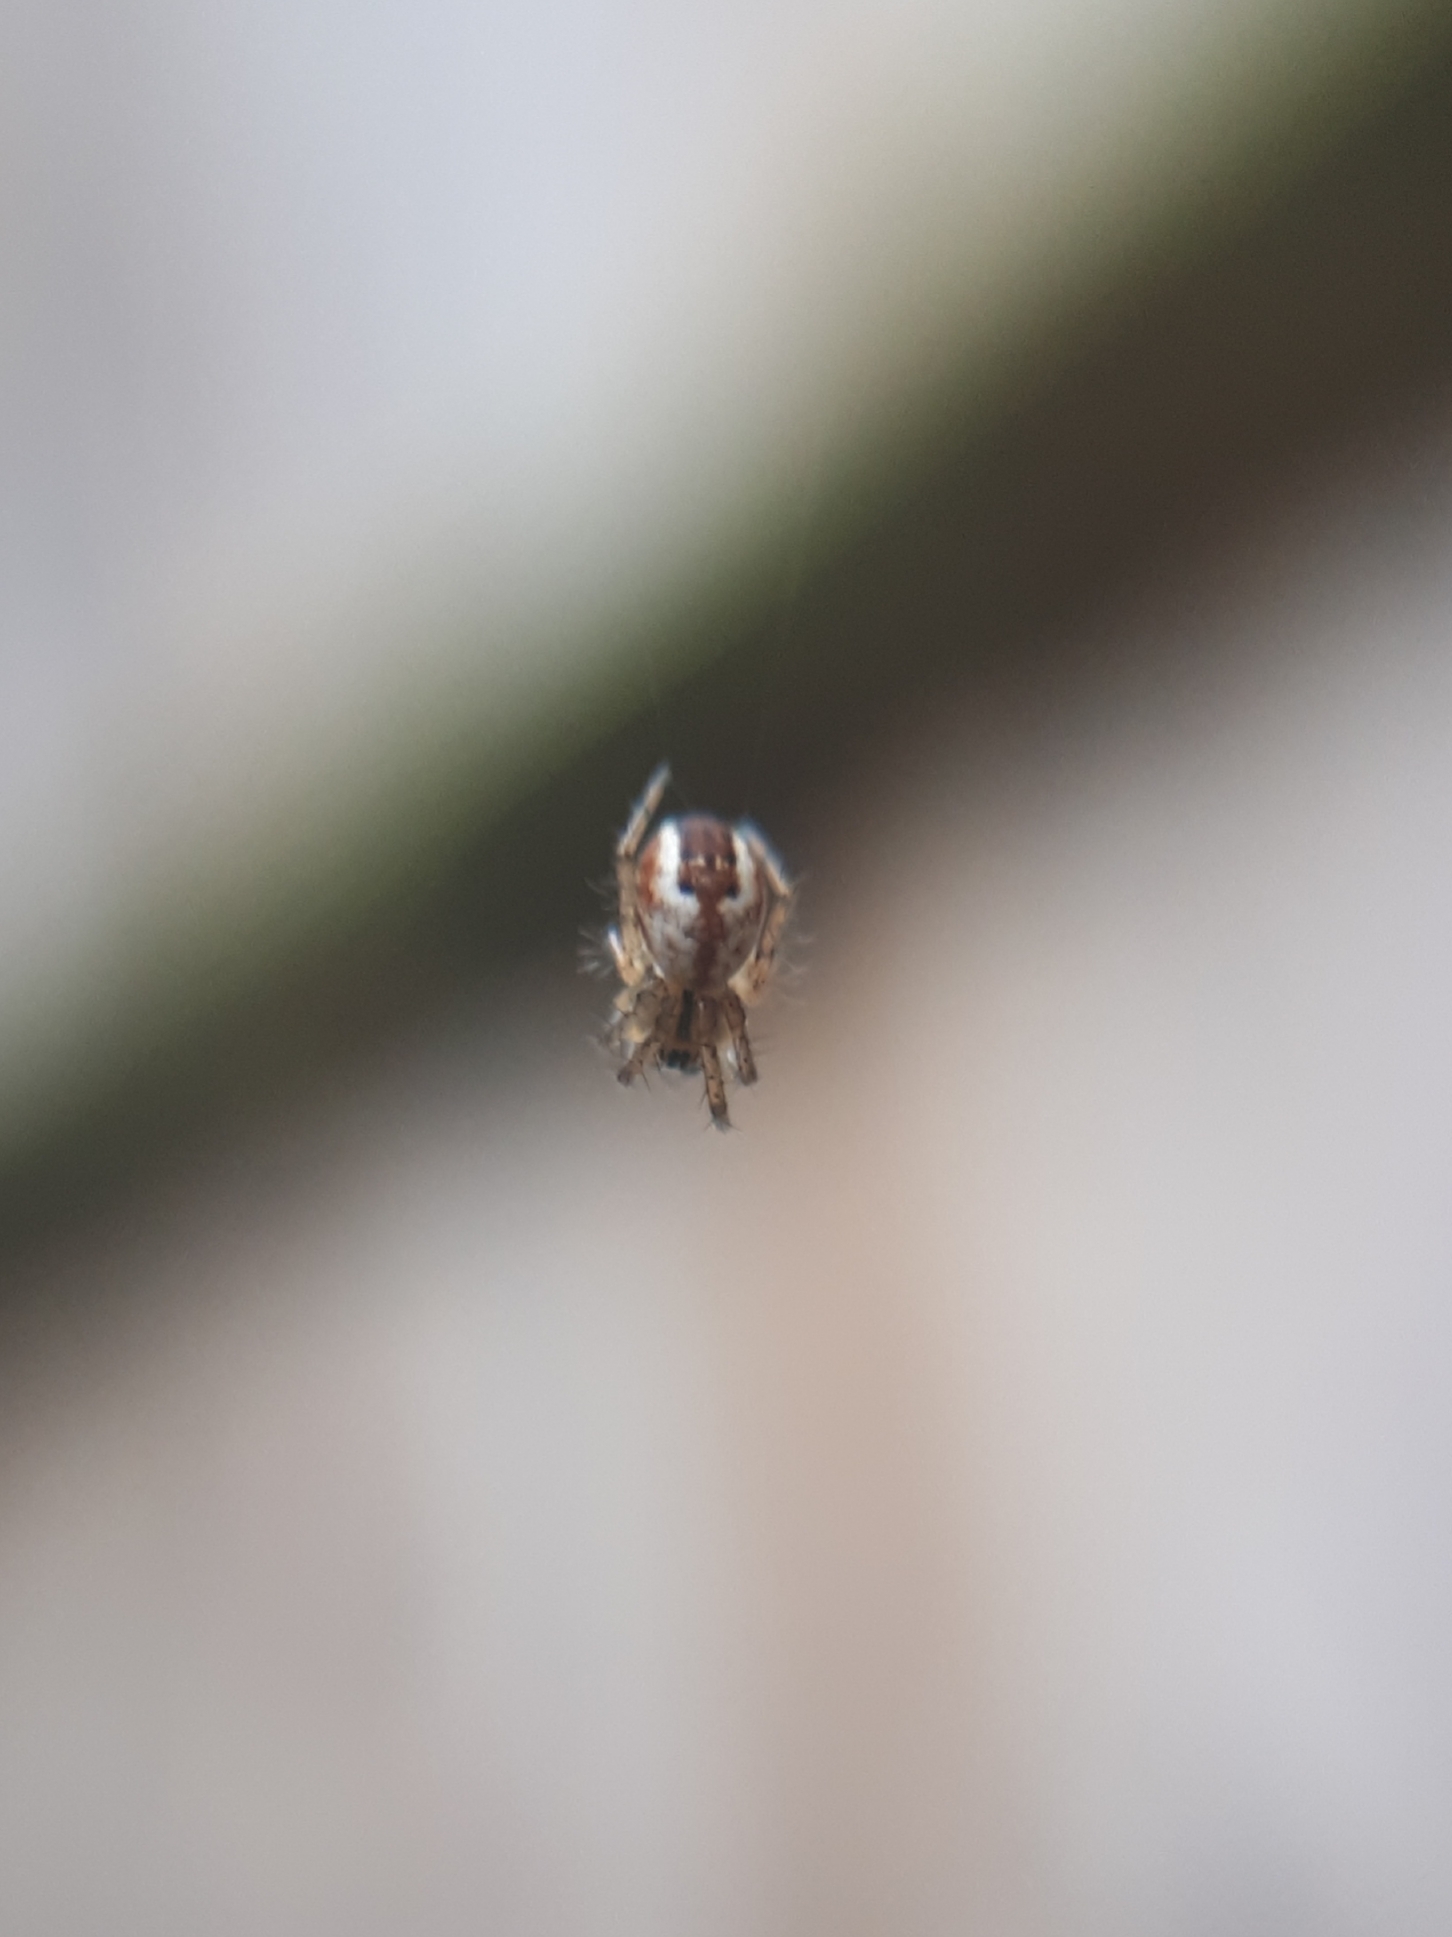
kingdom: Animalia
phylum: Arthropoda
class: Arachnida
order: Araneae
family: Araneidae
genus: Mangora
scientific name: Mangora acalypha
